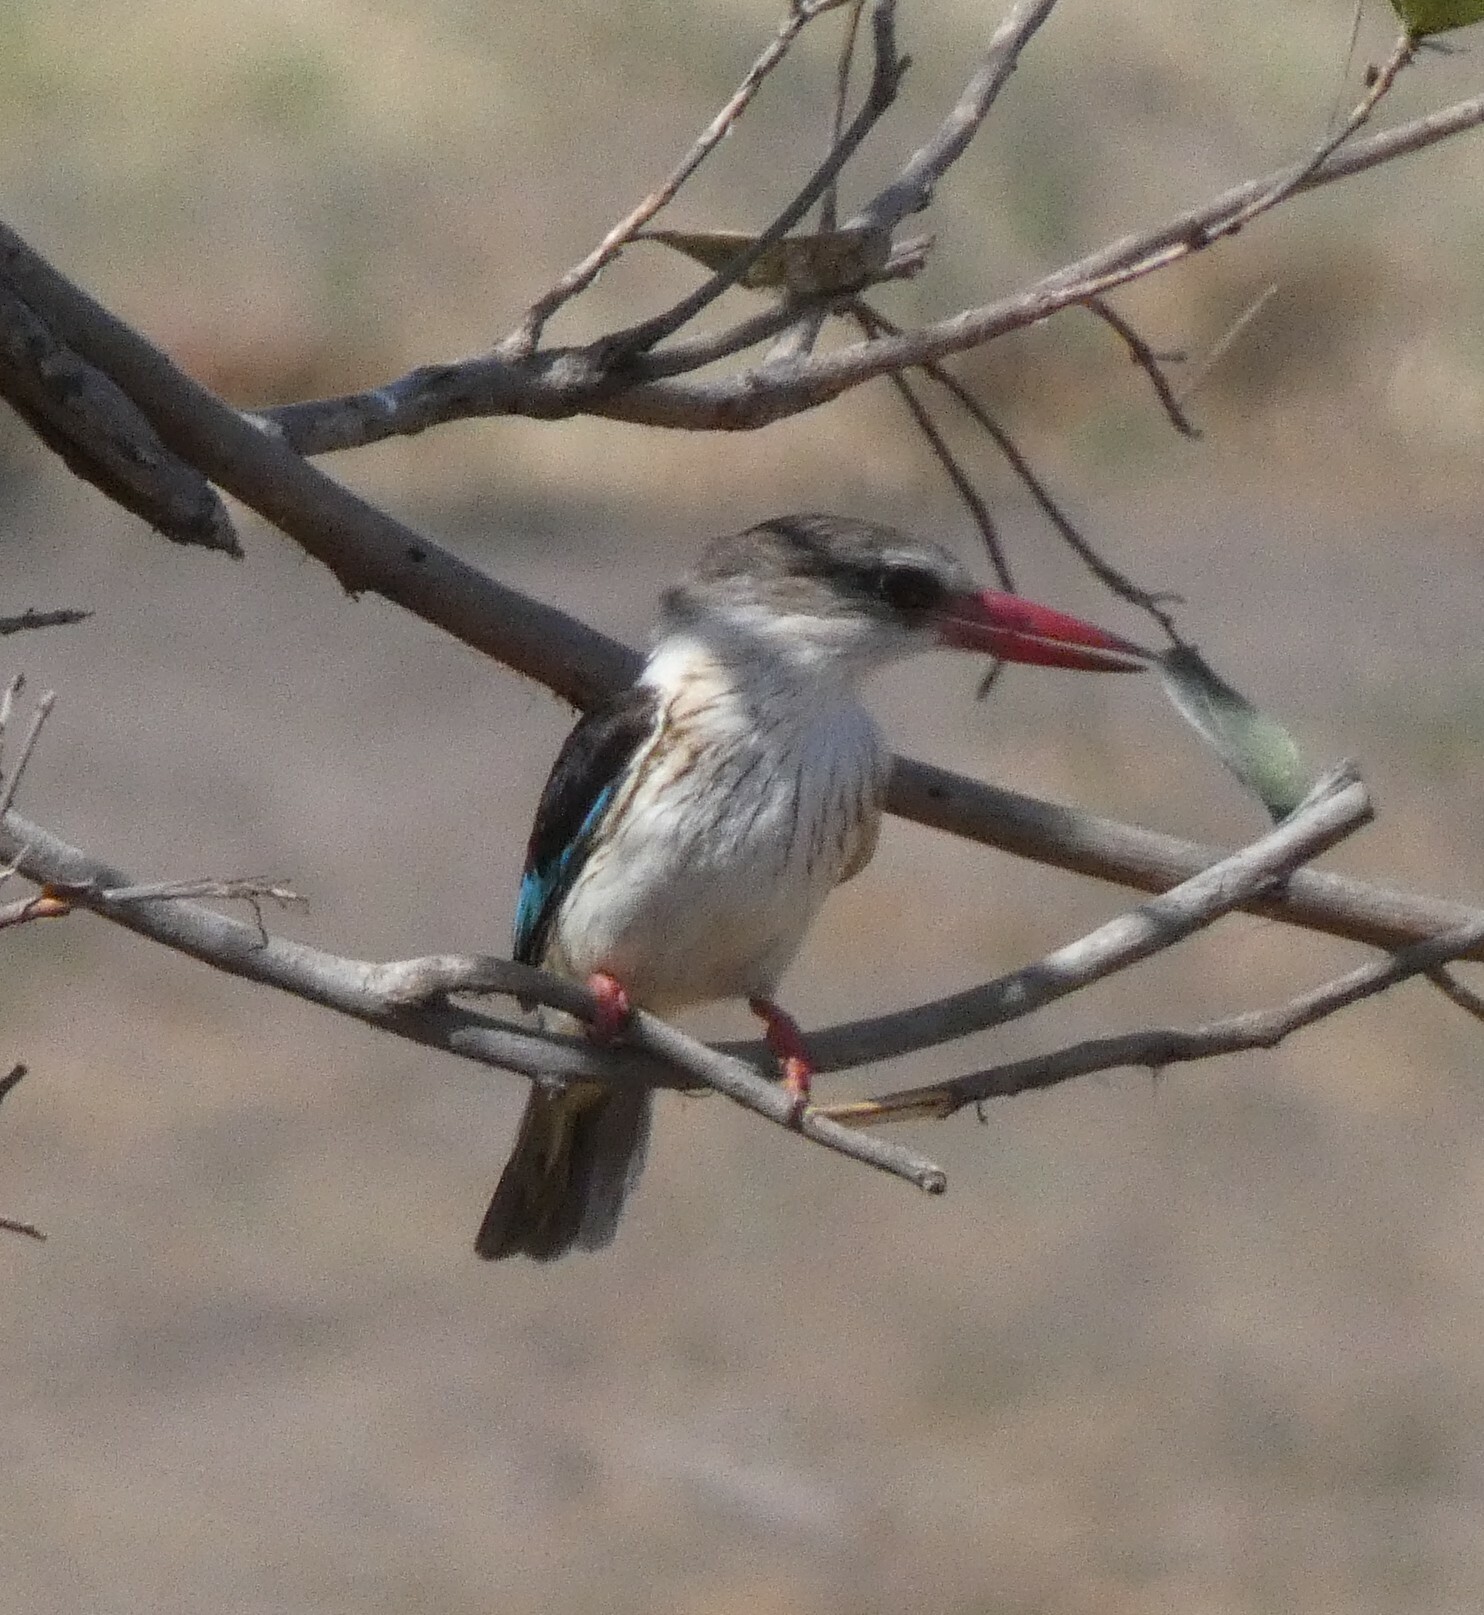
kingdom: Animalia
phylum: Chordata
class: Aves
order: Coraciiformes
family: Alcedinidae
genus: Halcyon
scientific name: Halcyon albiventris
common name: Brown-hooded kingfisher
